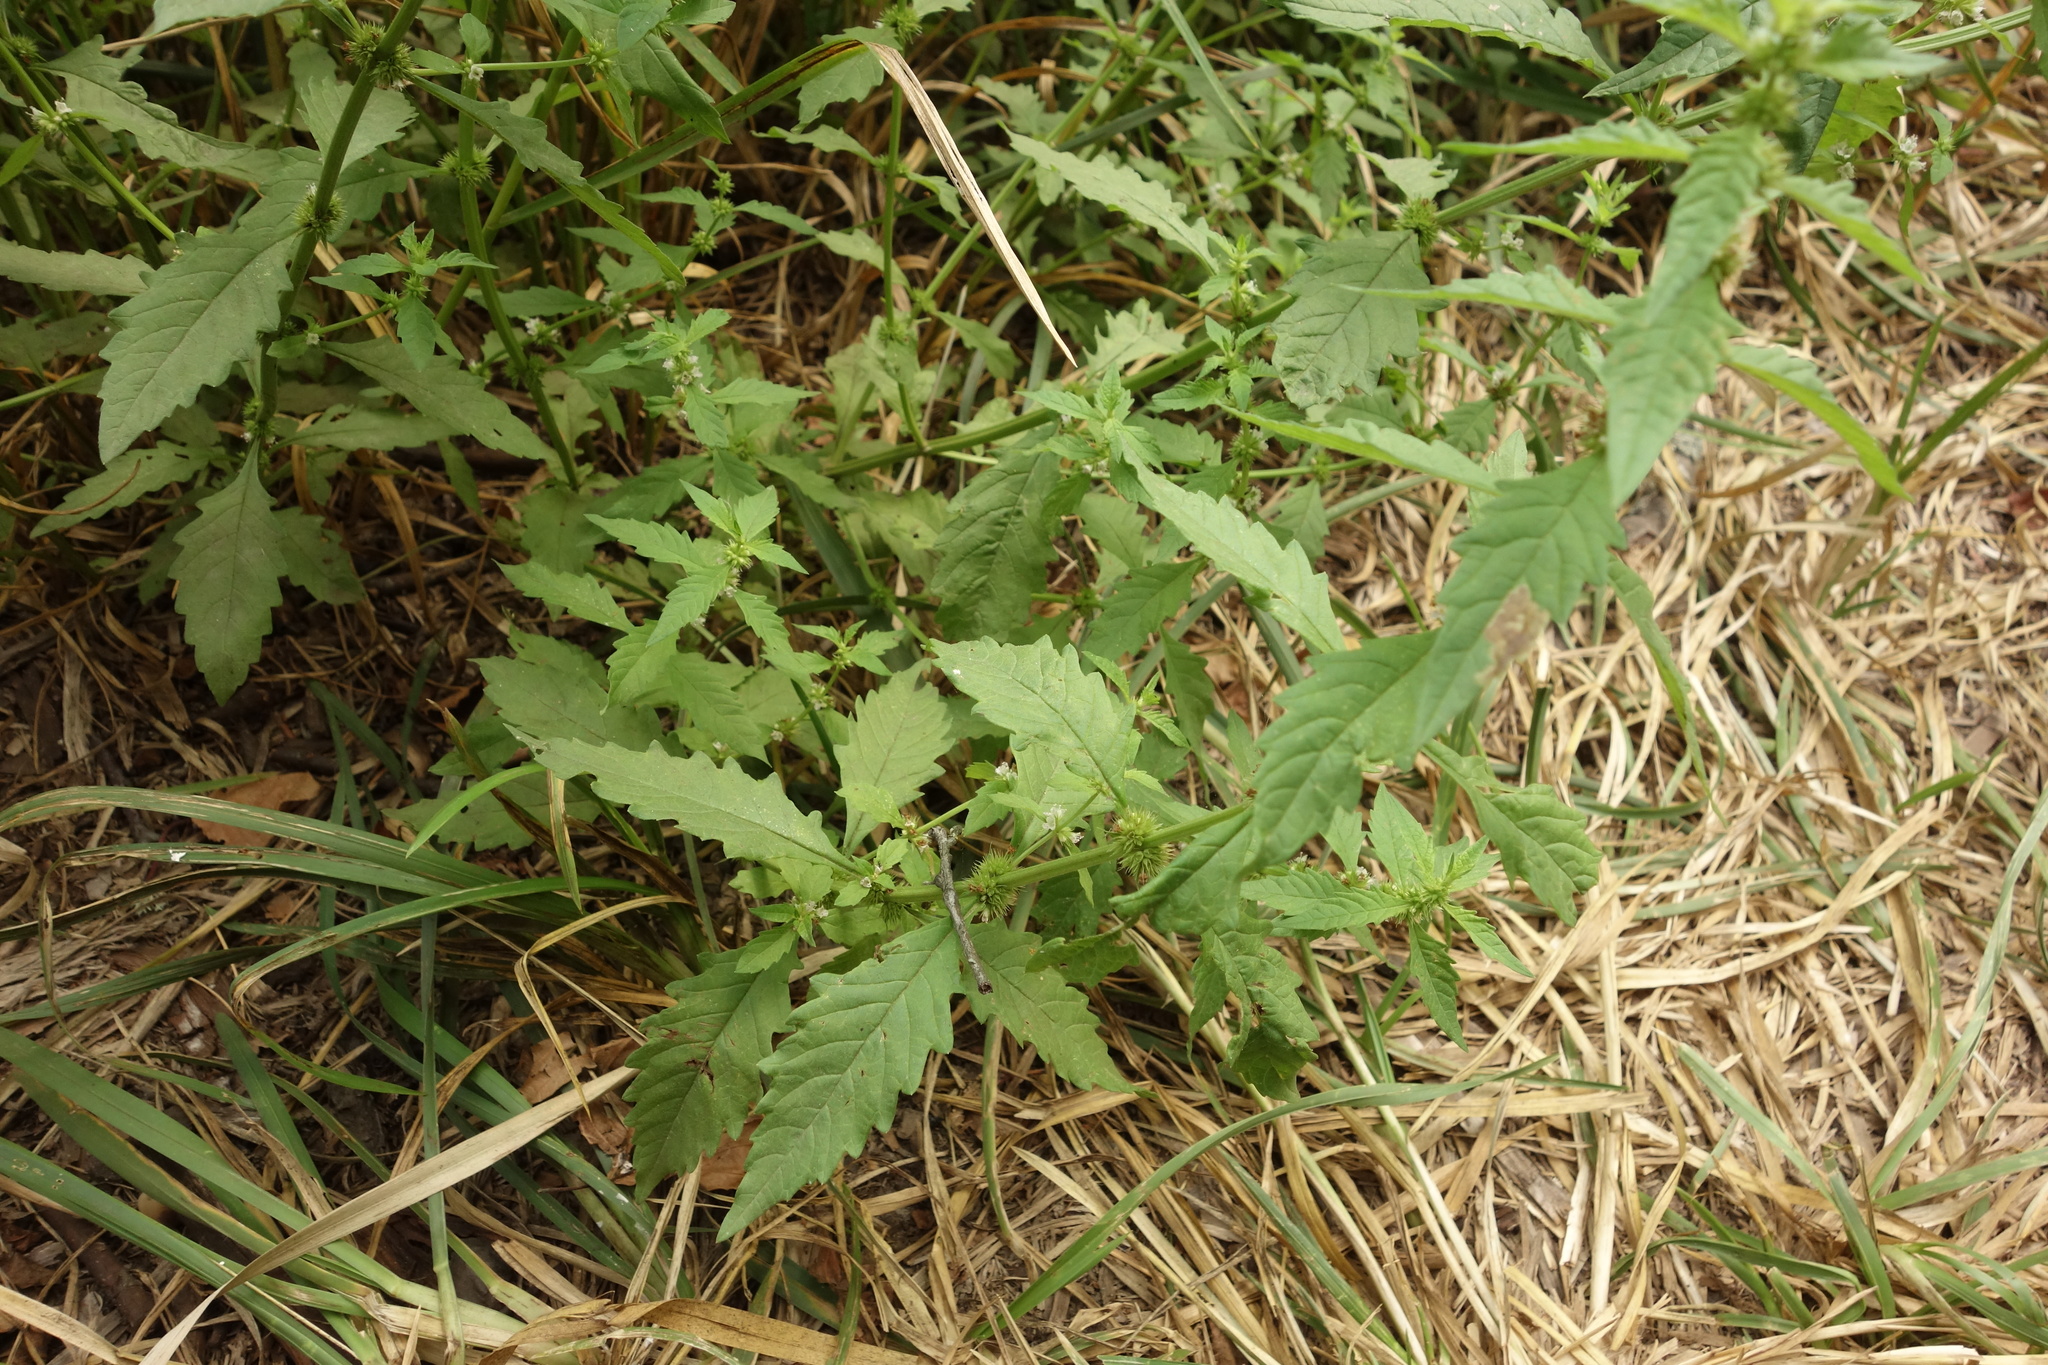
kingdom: Plantae
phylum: Tracheophyta
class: Magnoliopsida
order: Lamiales
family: Lamiaceae
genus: Lycopus
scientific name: Lycopus europaeus
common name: European bugleweed
